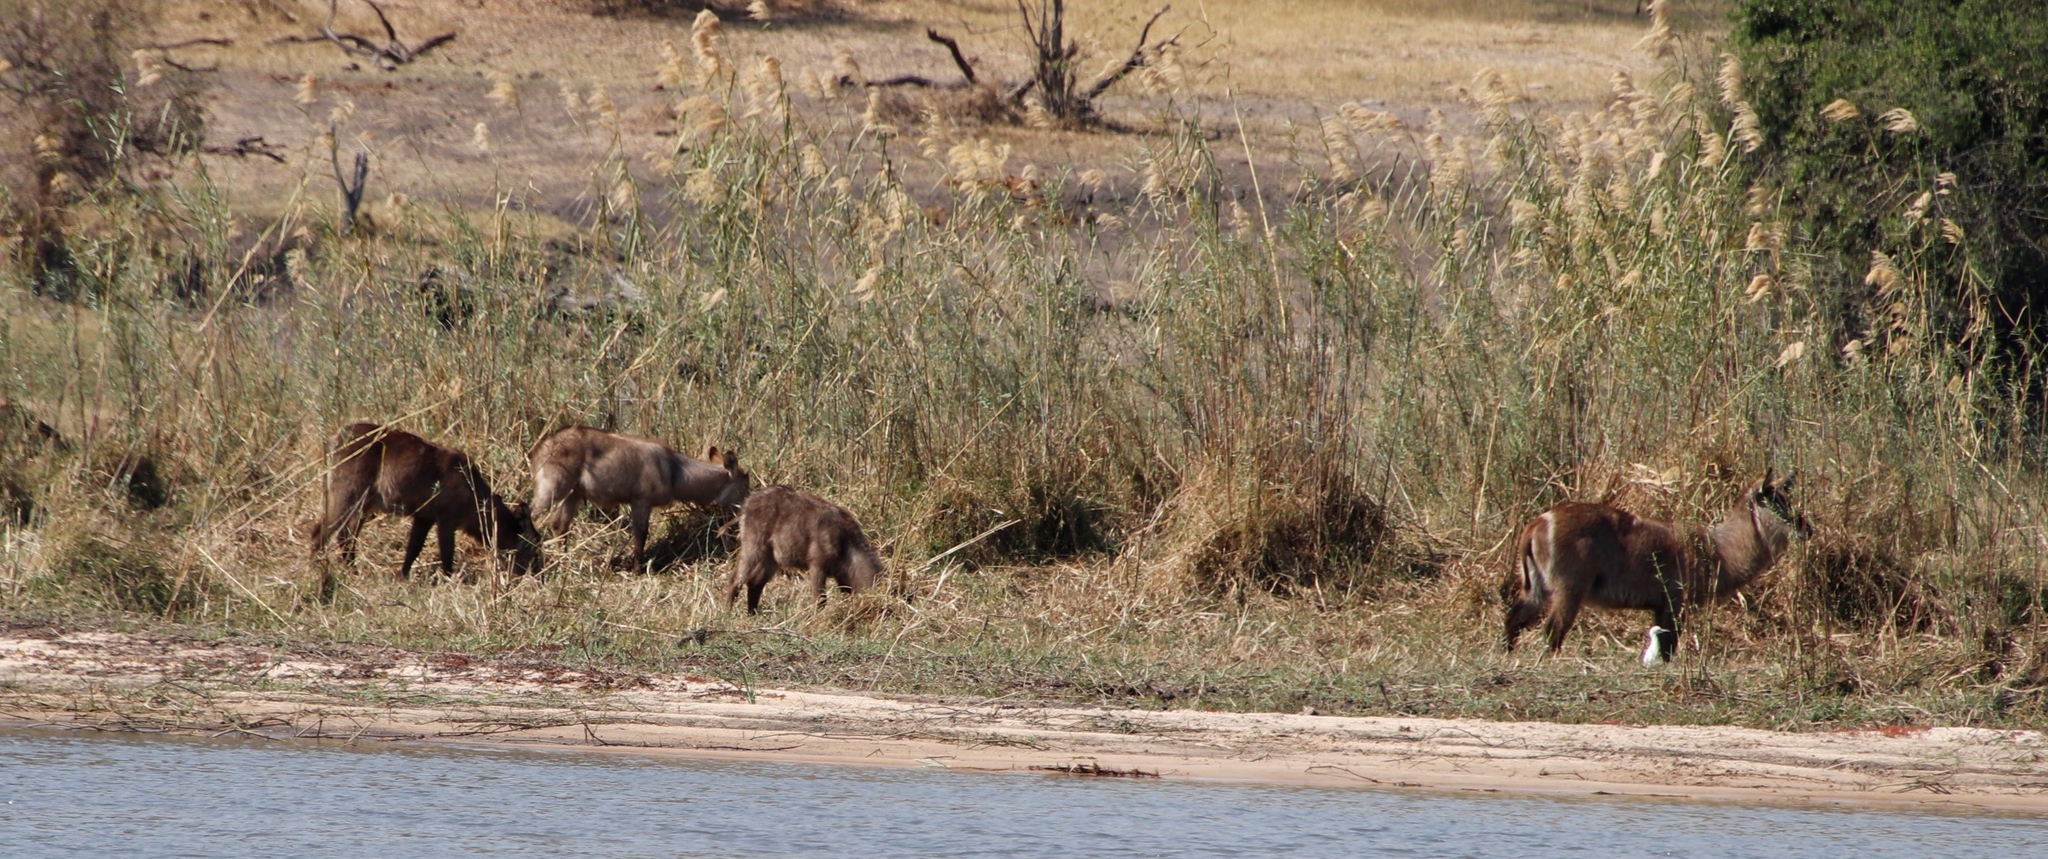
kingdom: Animalia
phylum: Chordata
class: Mammalia
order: Artiodactyla
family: Bovidae
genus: Kobus
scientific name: Kobus ellipsiprymnus
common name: Waterbuck
